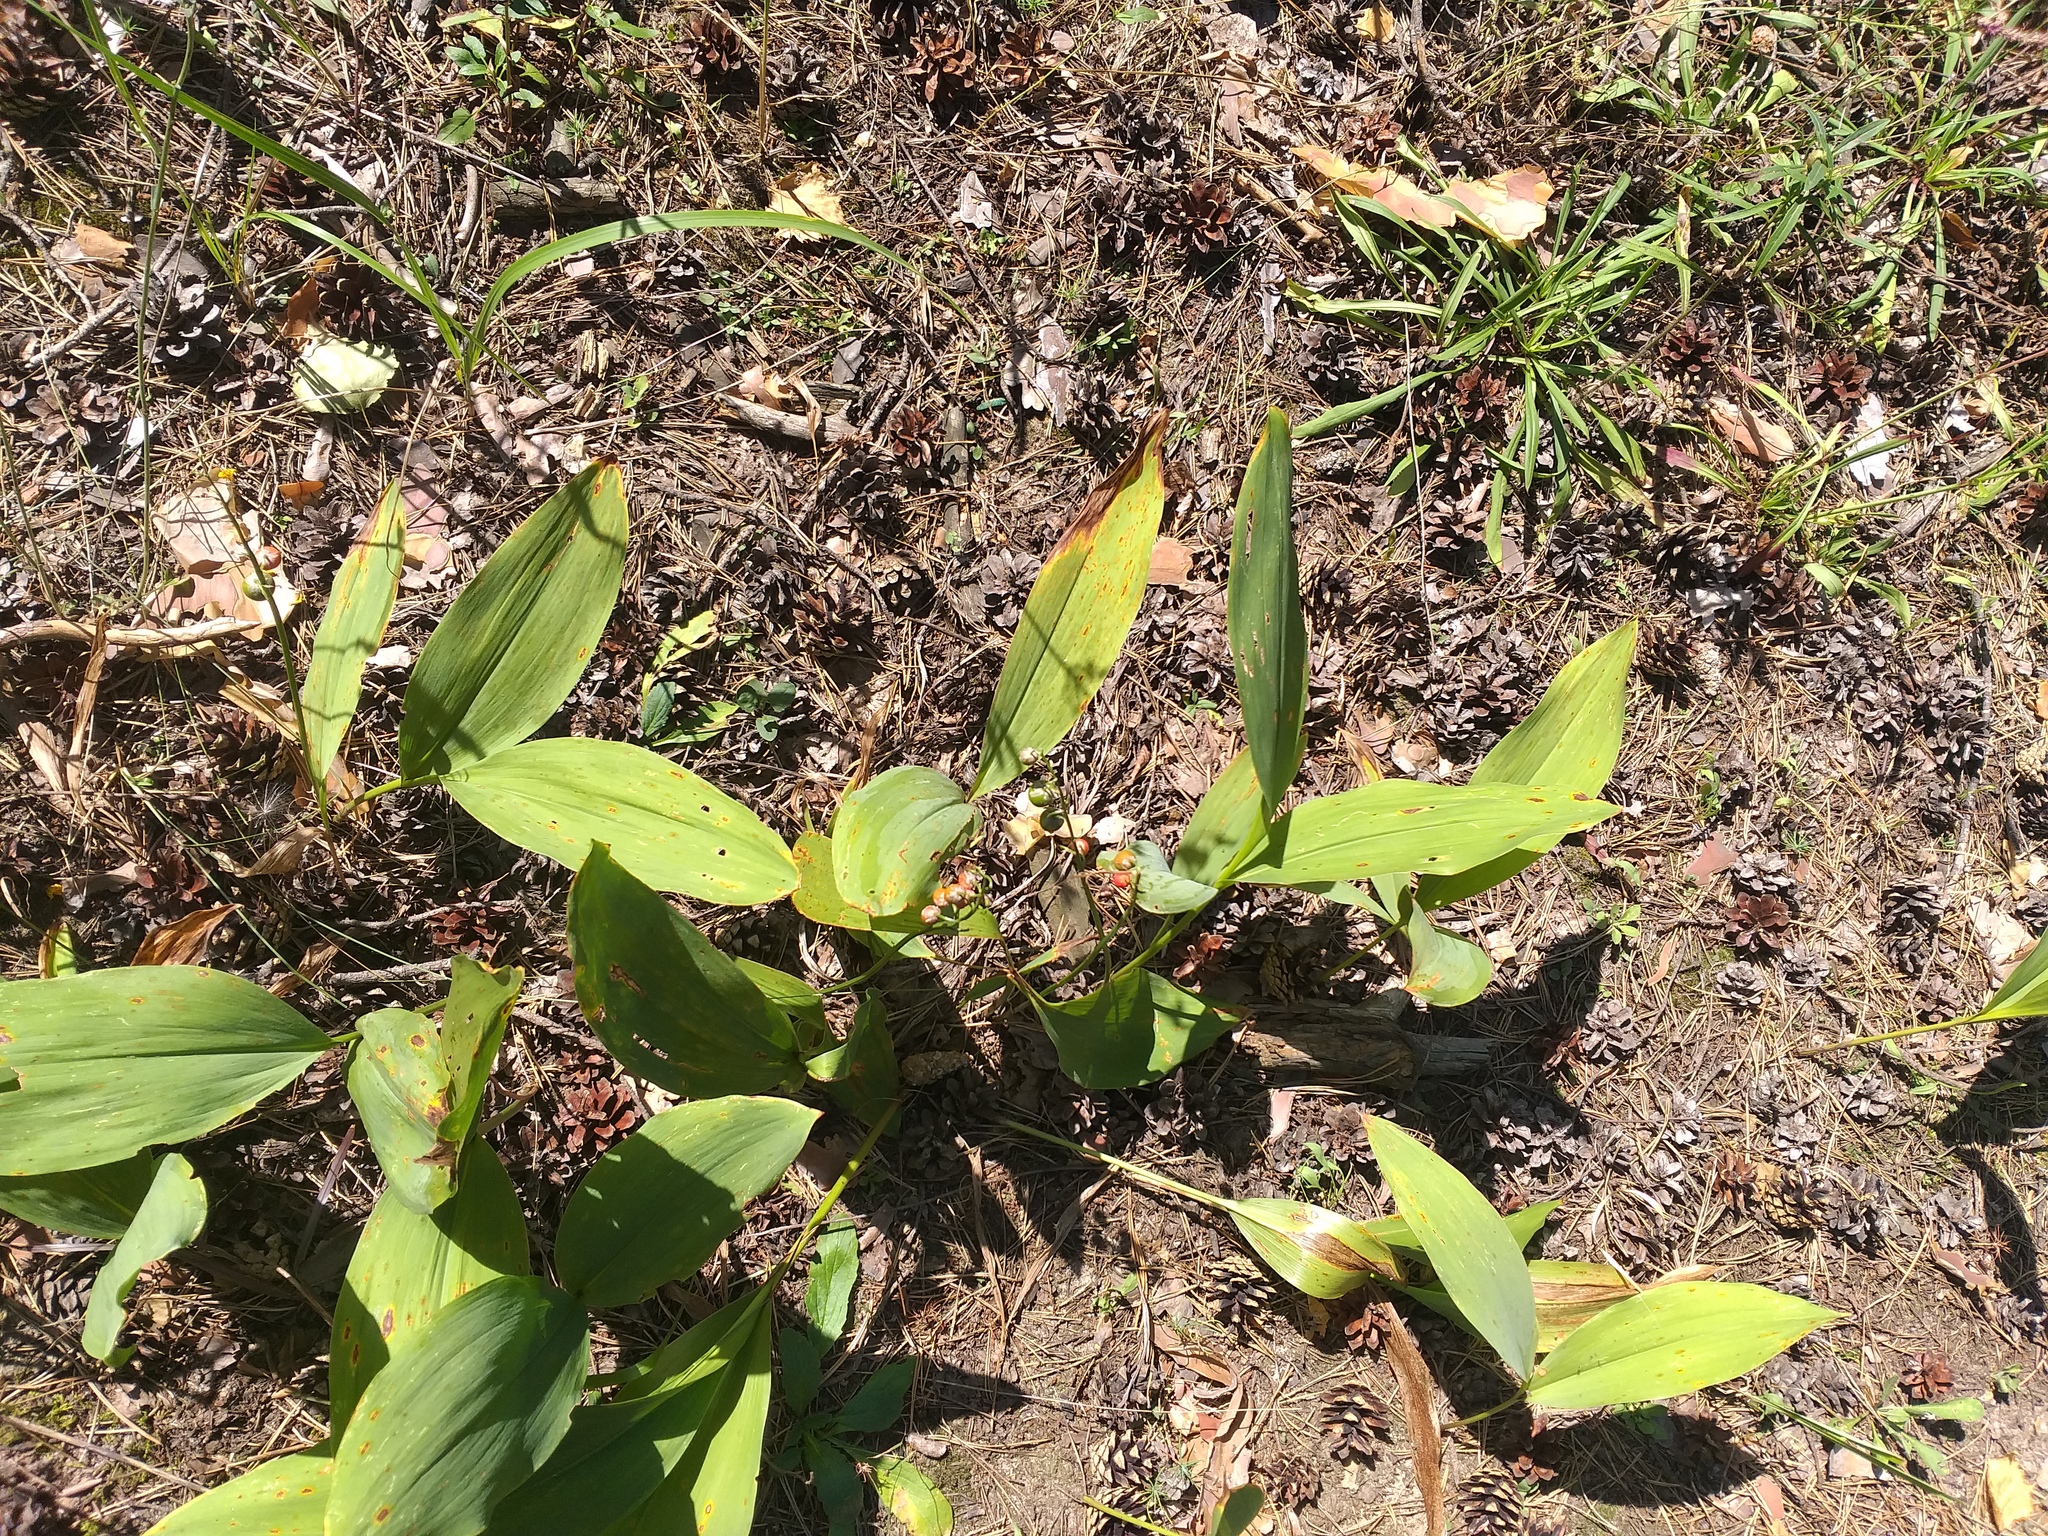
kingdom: Plantae
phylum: Tracheophyta
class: Liliopsida
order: Asparagales
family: Asparagaceae
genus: Convallaria
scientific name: Convallaria majalis
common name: Lily-of-the-valley
